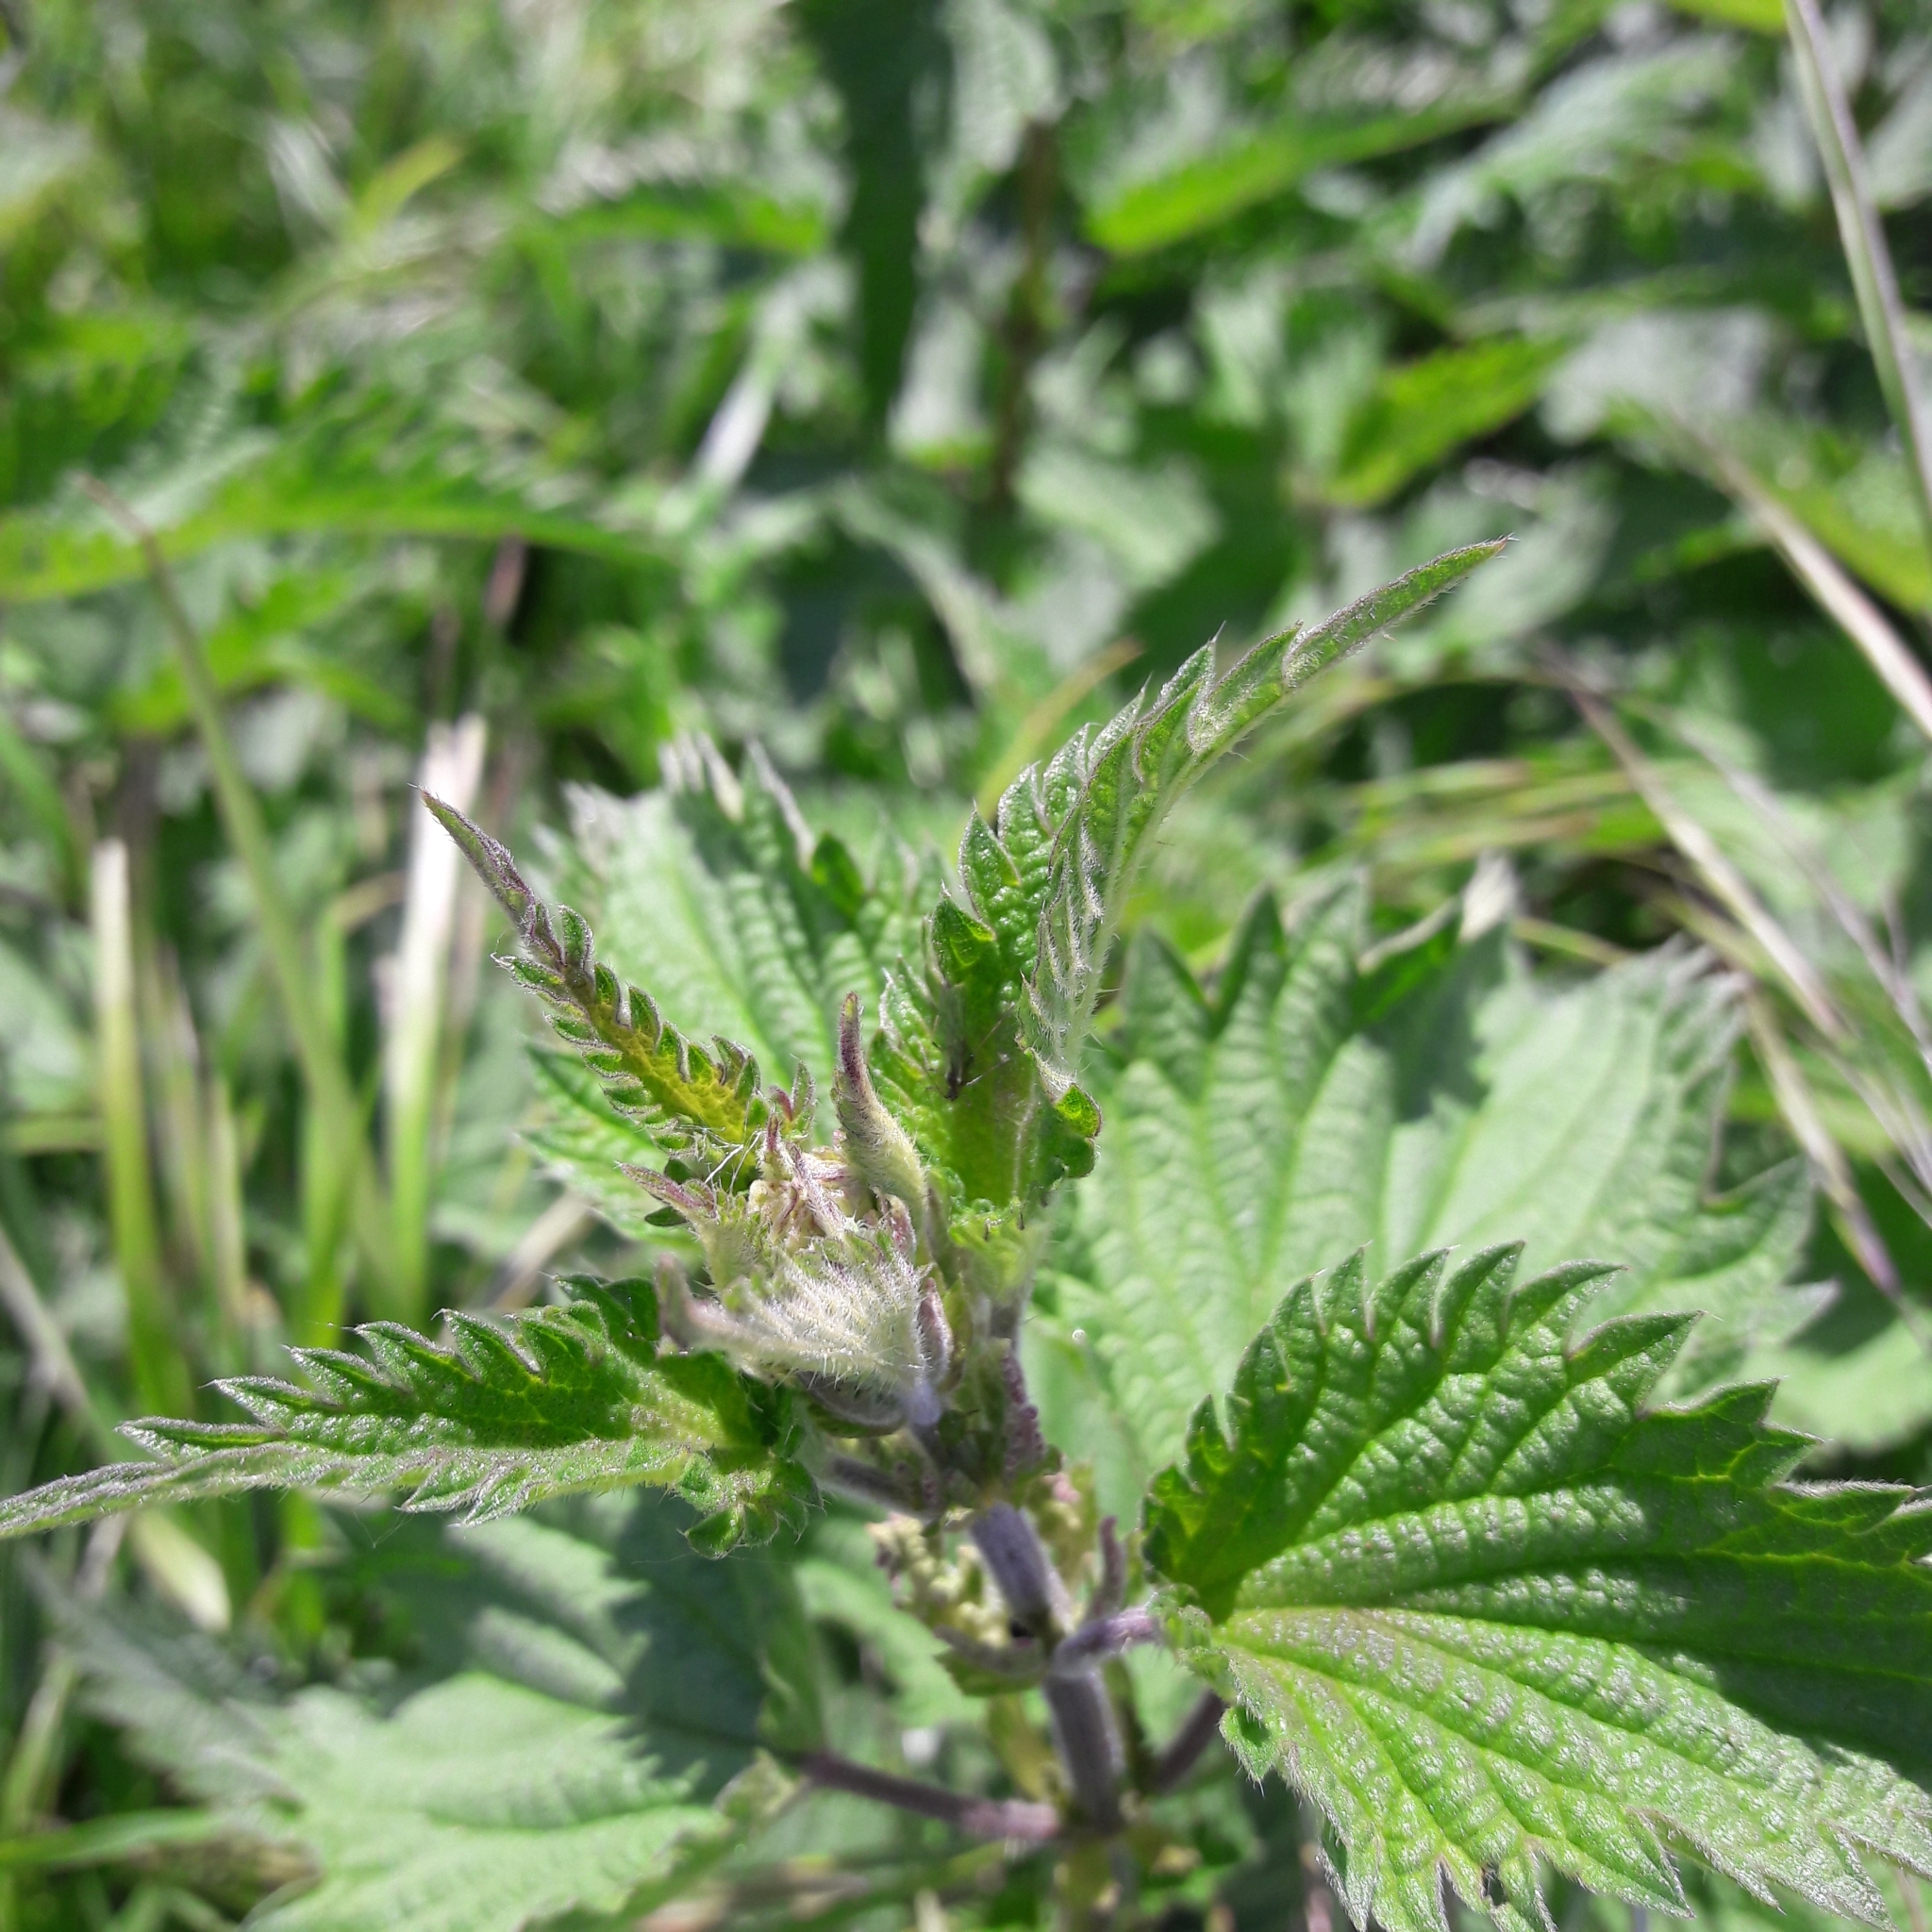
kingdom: Plantae
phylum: Tracheophyta
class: Magnoliopsida
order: Rosales
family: Urticaceae
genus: Urtica
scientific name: Urtica dioica
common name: Common nettle
